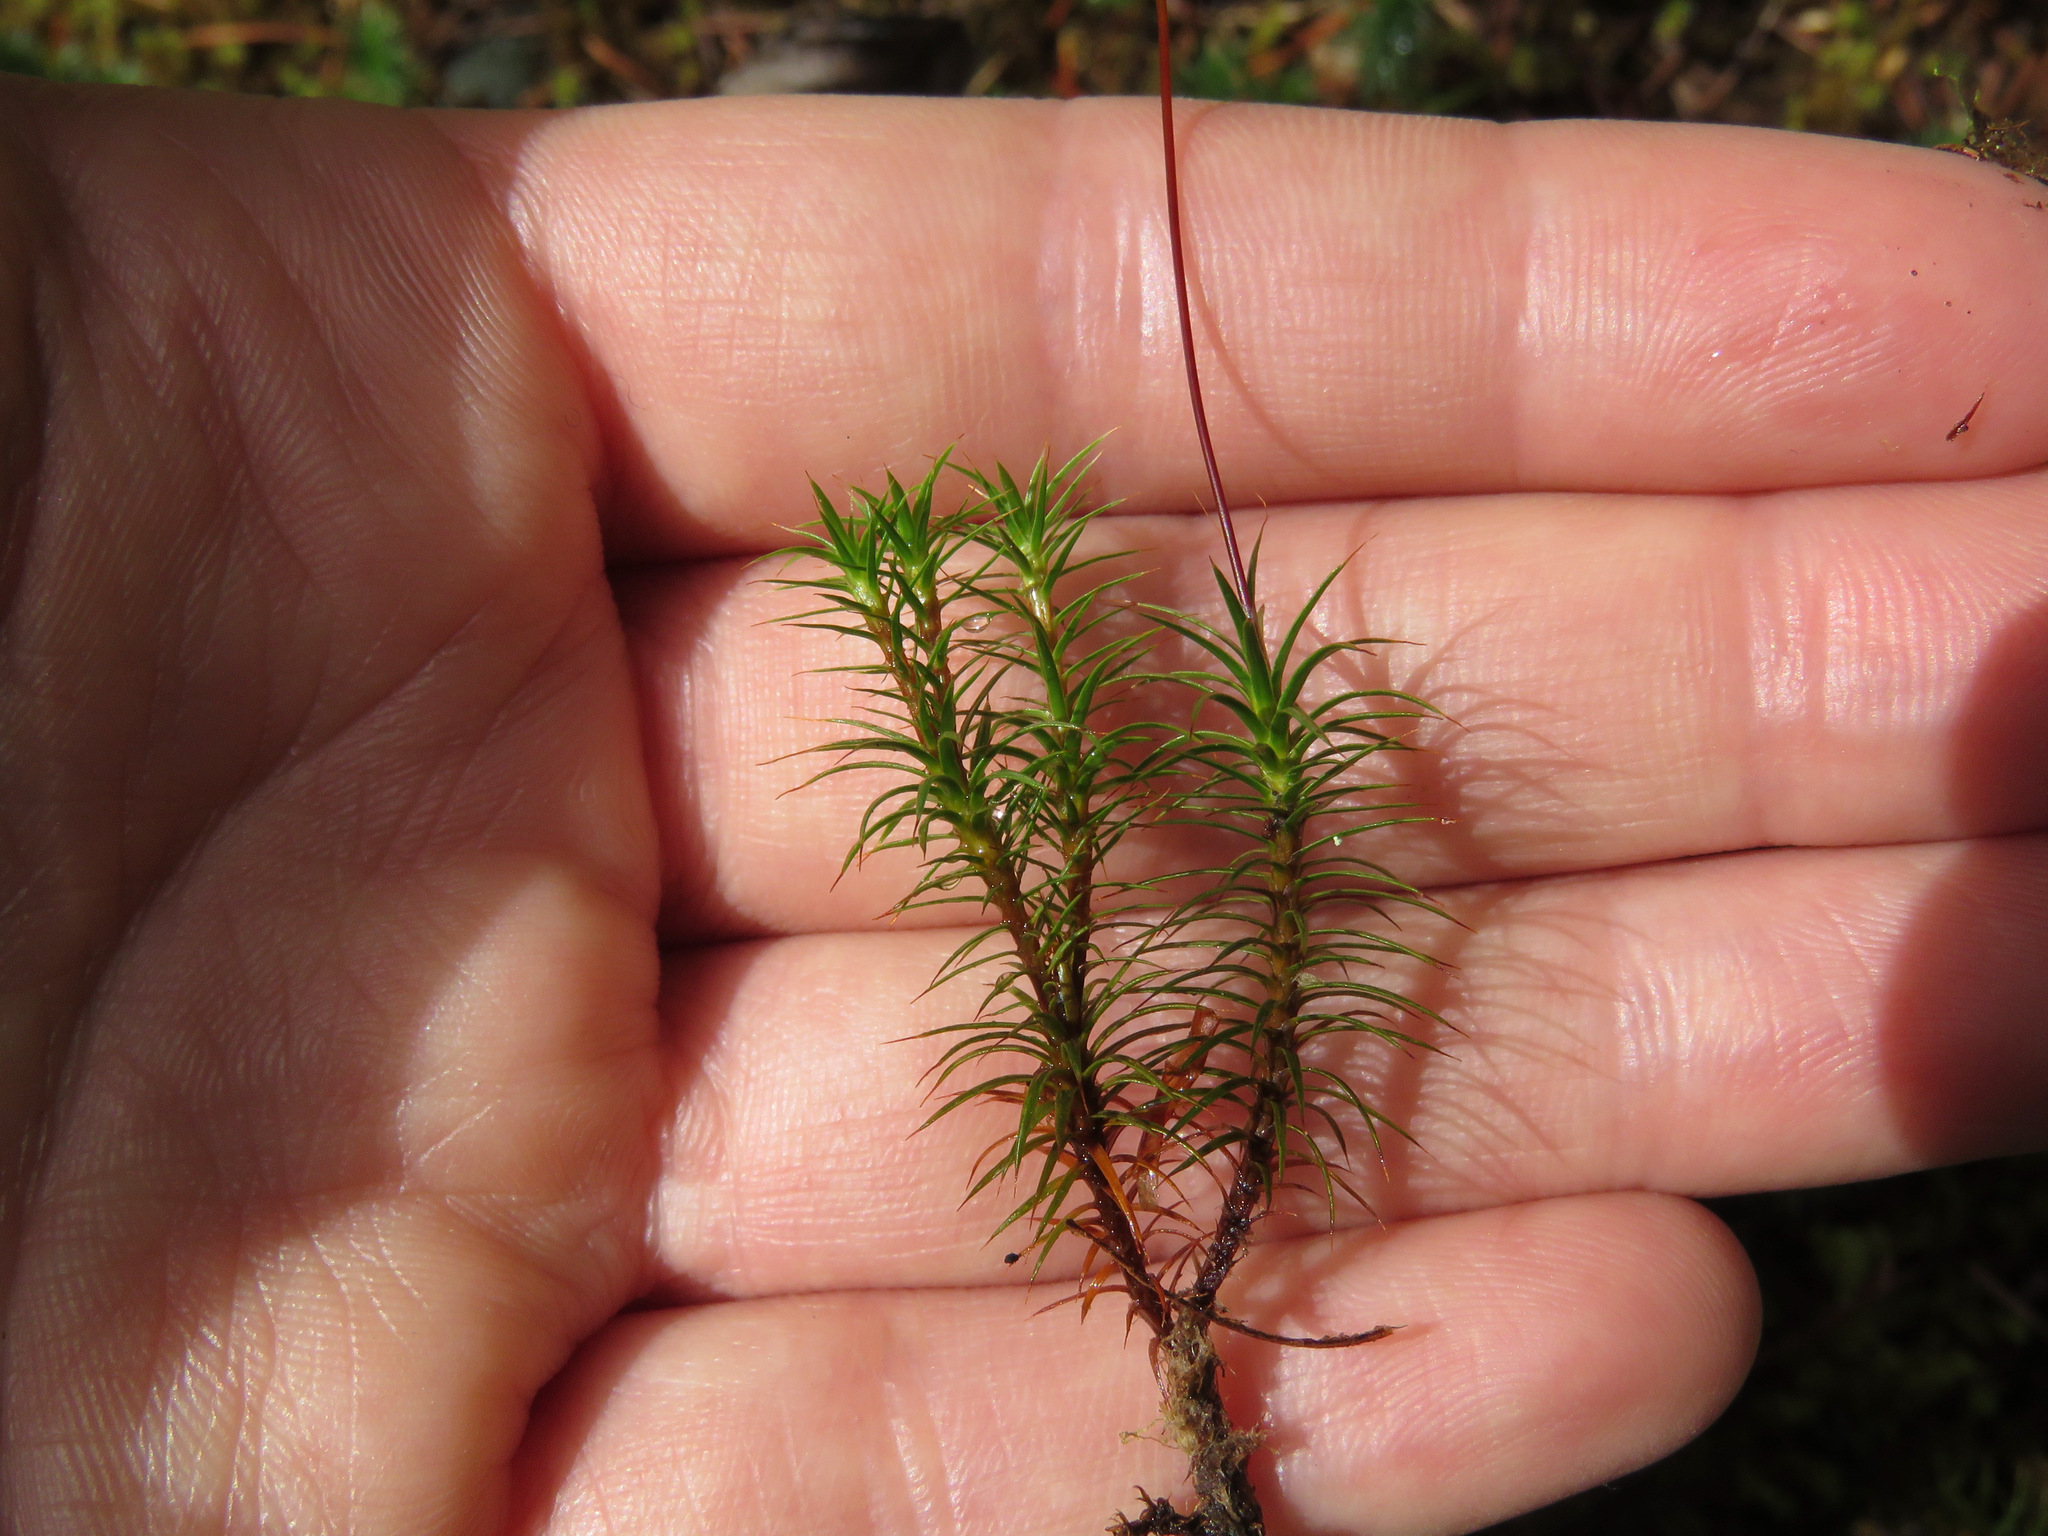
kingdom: Plantae
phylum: Bryophyta
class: Polytrichopsida
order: Polytrichales
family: Polytrichaceae
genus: Polytrichum
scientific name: Polytrichum juniperinum
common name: Juniper haircap moss
